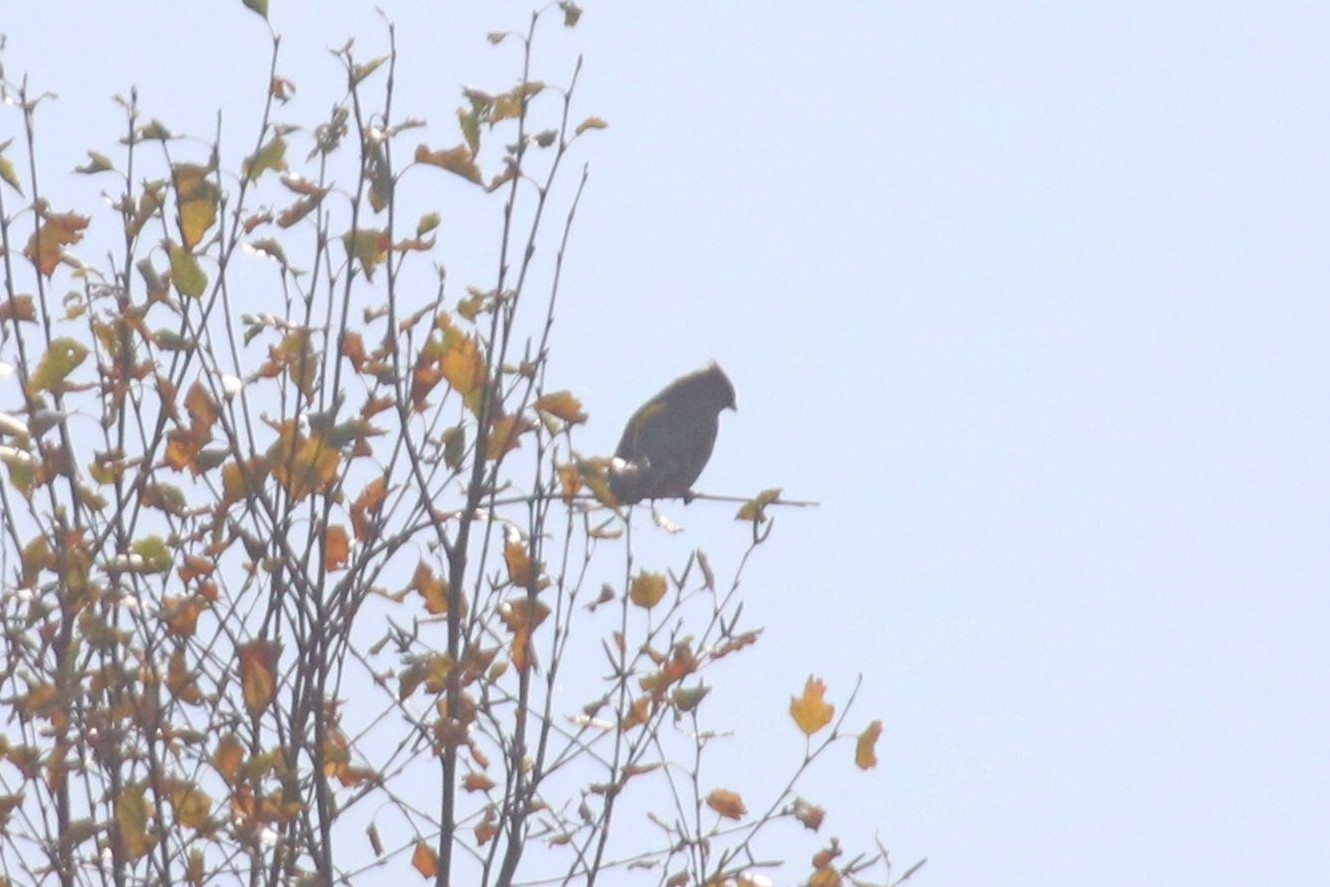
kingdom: Animalia
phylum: Chordata
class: Aves
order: Passeriformes
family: Bombycillidae
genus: Bombycilla
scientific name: Bombycilla garrulus
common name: Bohemian waxwing
